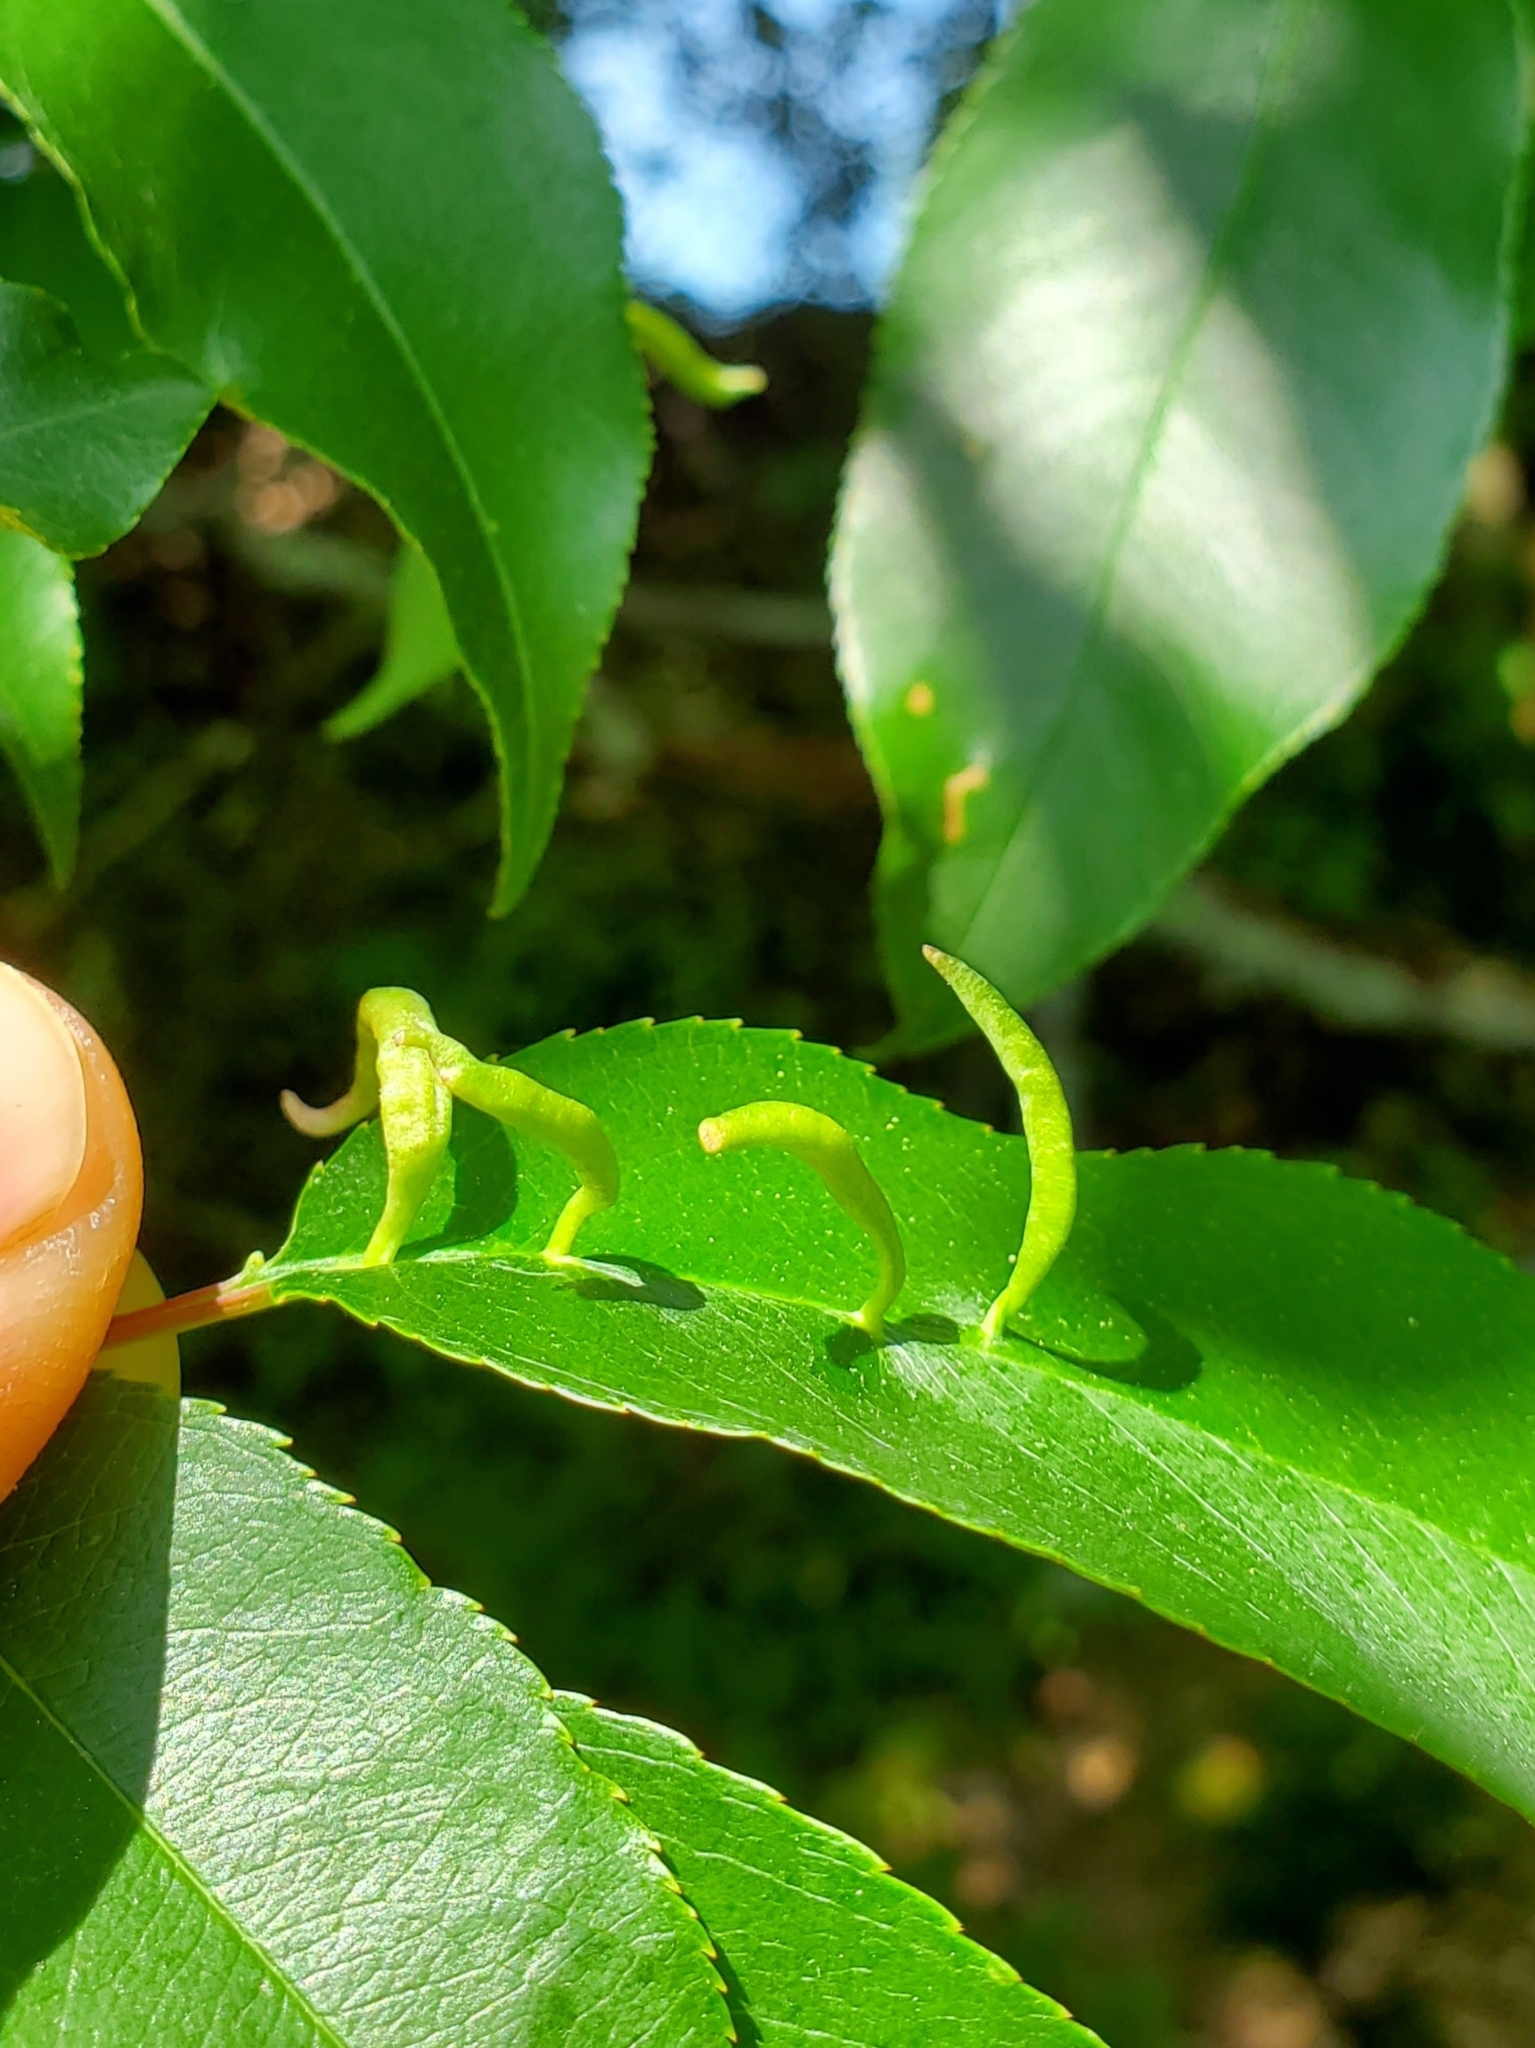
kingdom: Animalia
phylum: Arthropoda
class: Arachnida
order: Trombidiformes
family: Eriophyidae
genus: Eriophyes
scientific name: Eriophyes
